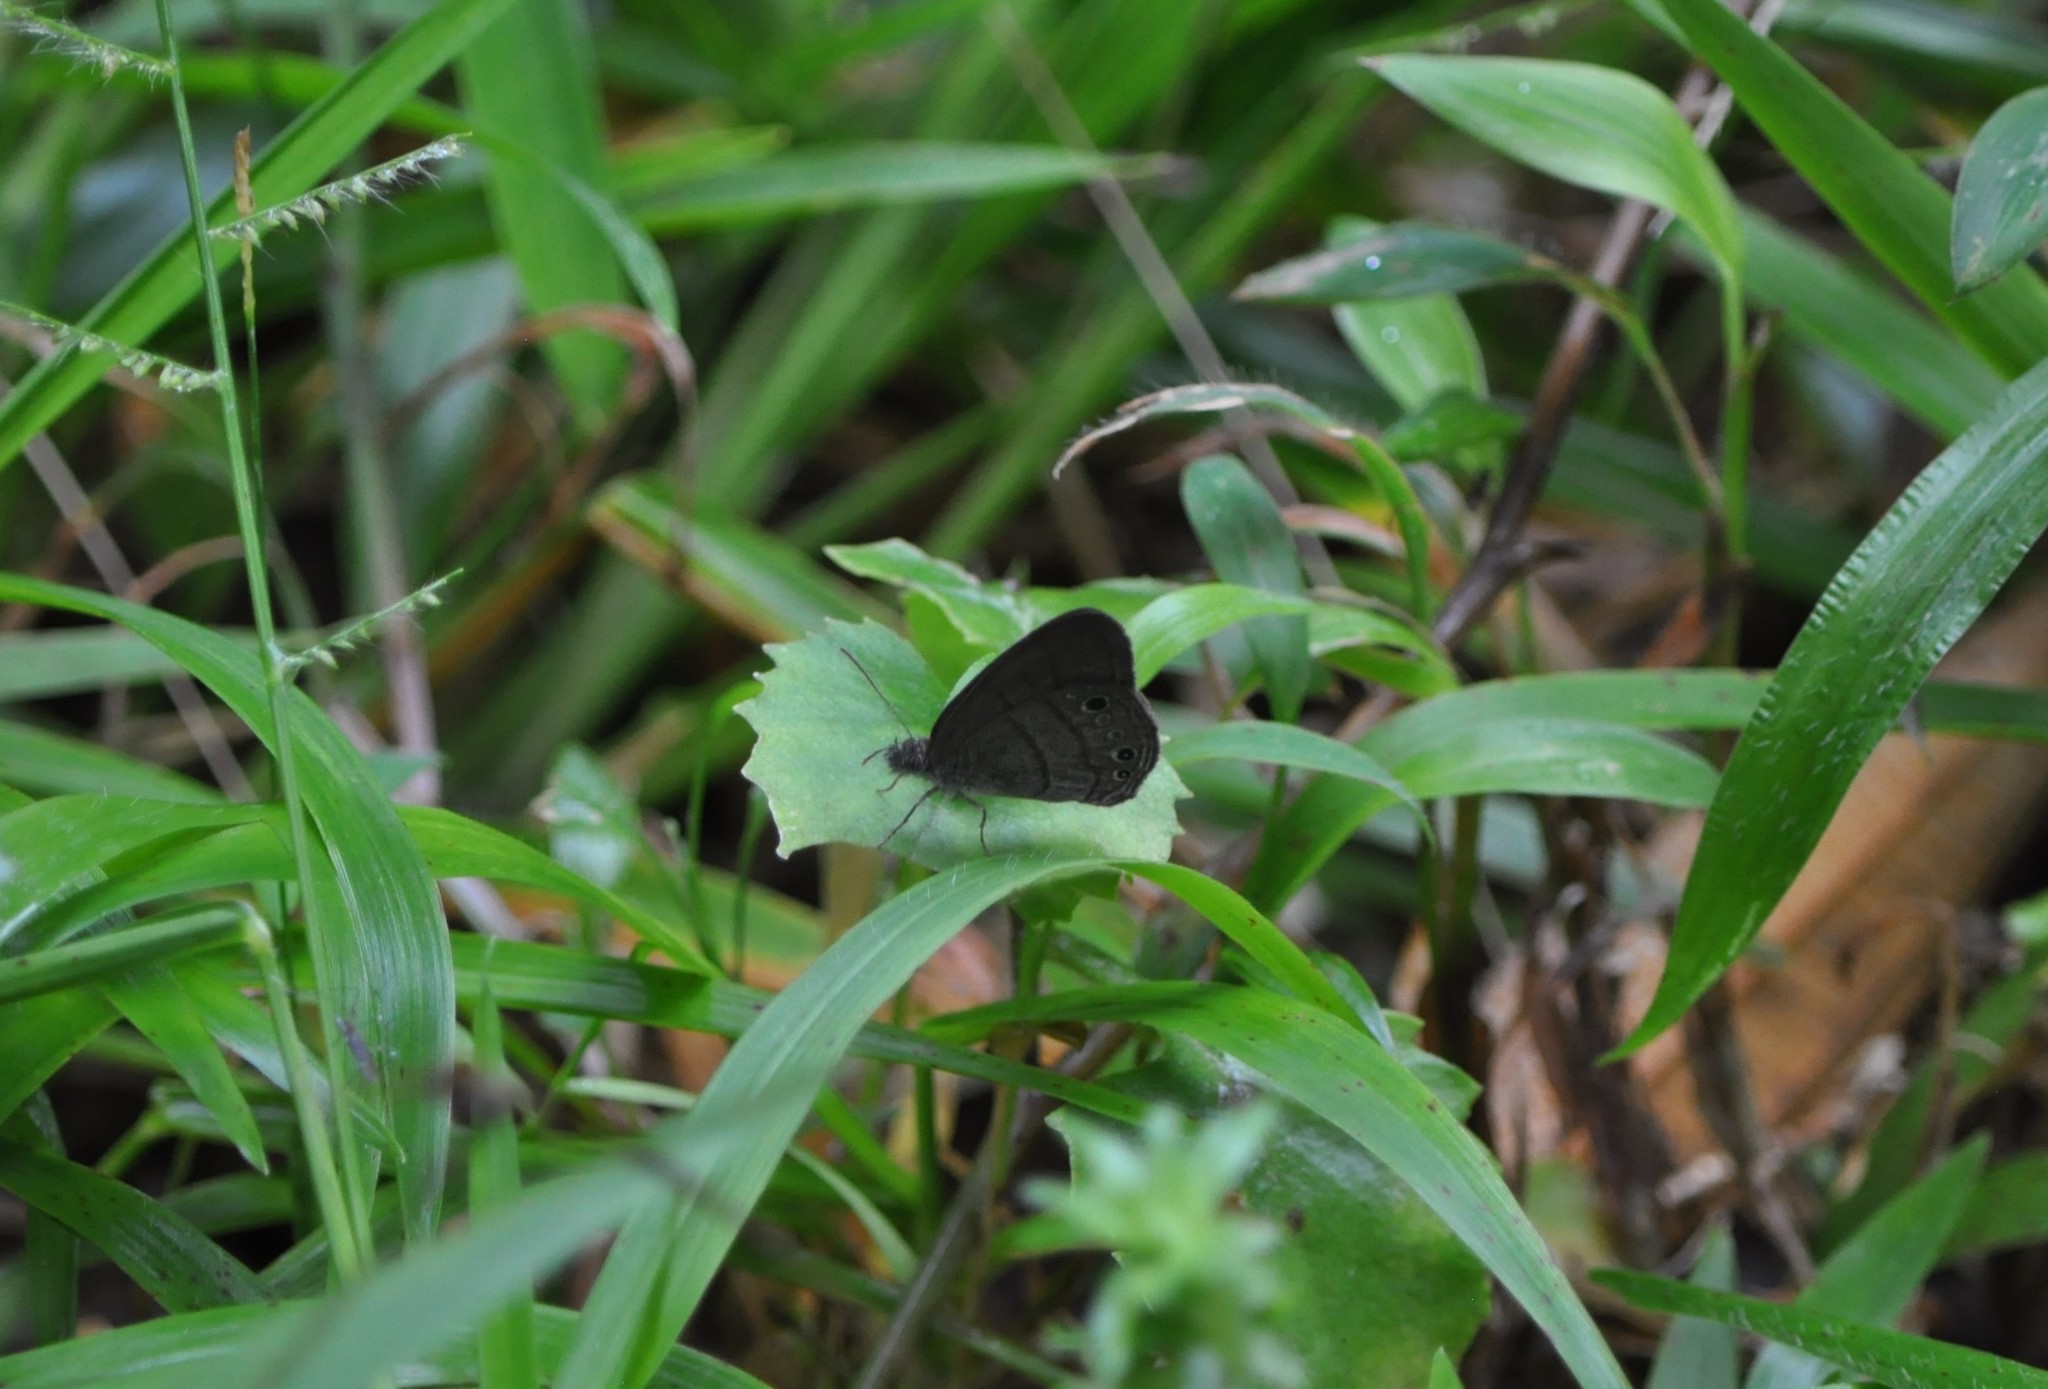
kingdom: Animalia
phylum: Arthropoda
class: Insecta
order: Lepidoptera
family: Nymphalidae
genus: Hermeuptychia
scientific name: Hermeuptychia hermes
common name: Hermes satyr
